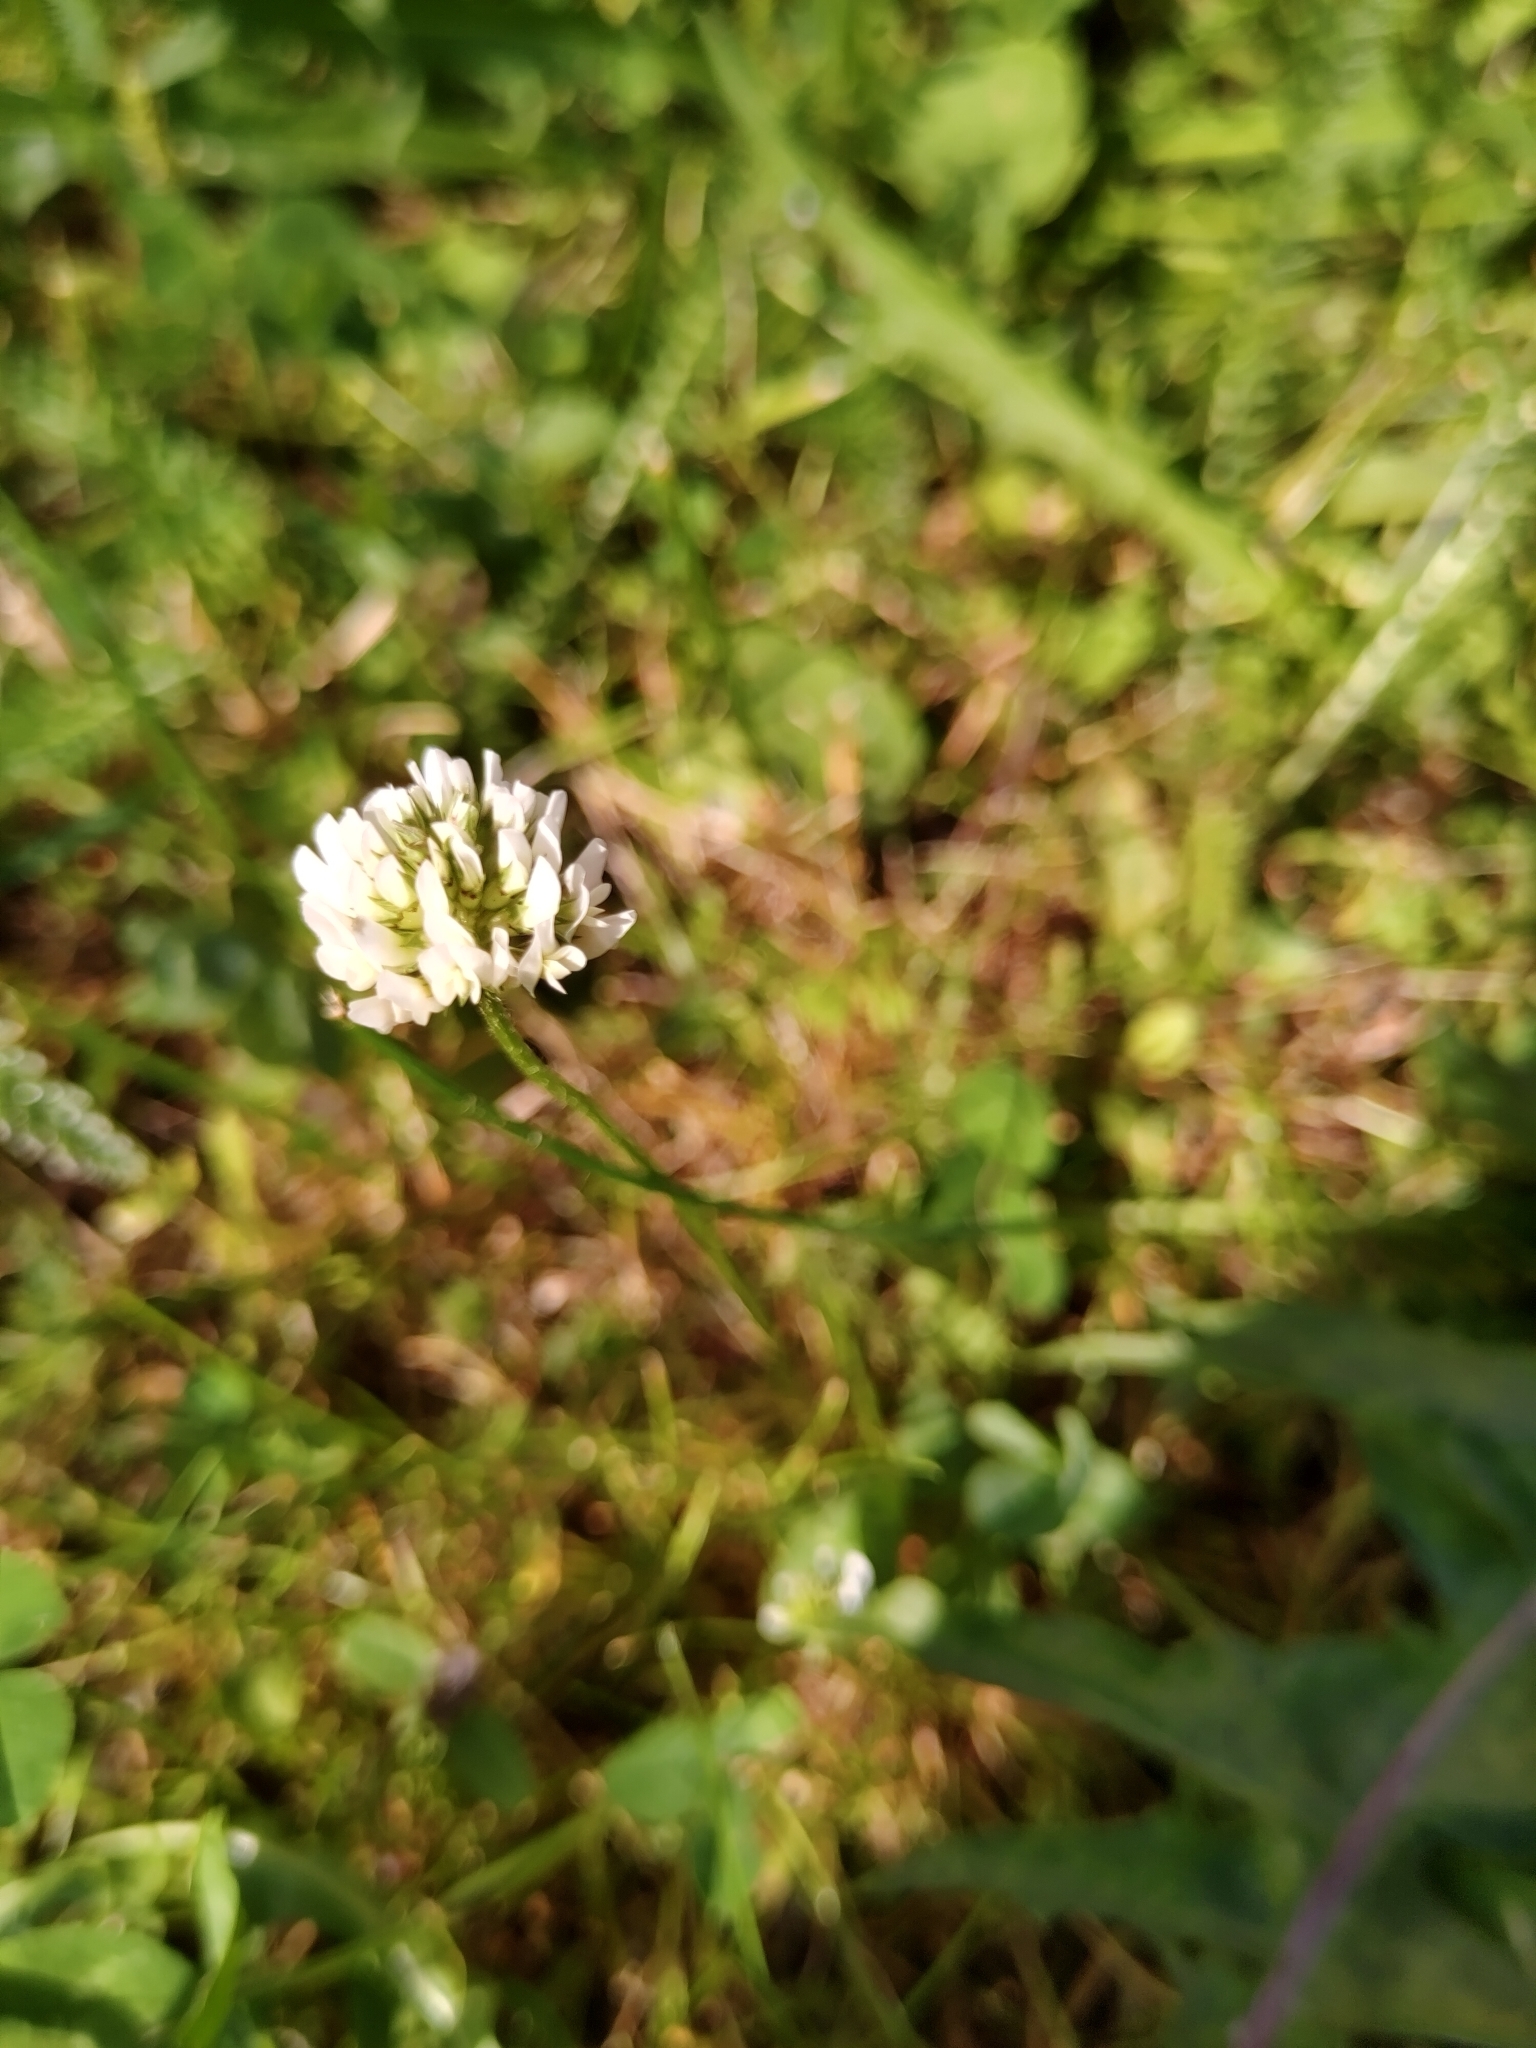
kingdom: Plantae
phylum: Tracheophyta
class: Magnoliopsida
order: Fabales
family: Fabaceae
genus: Trifolium
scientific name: Trifolium repens
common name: White clover
